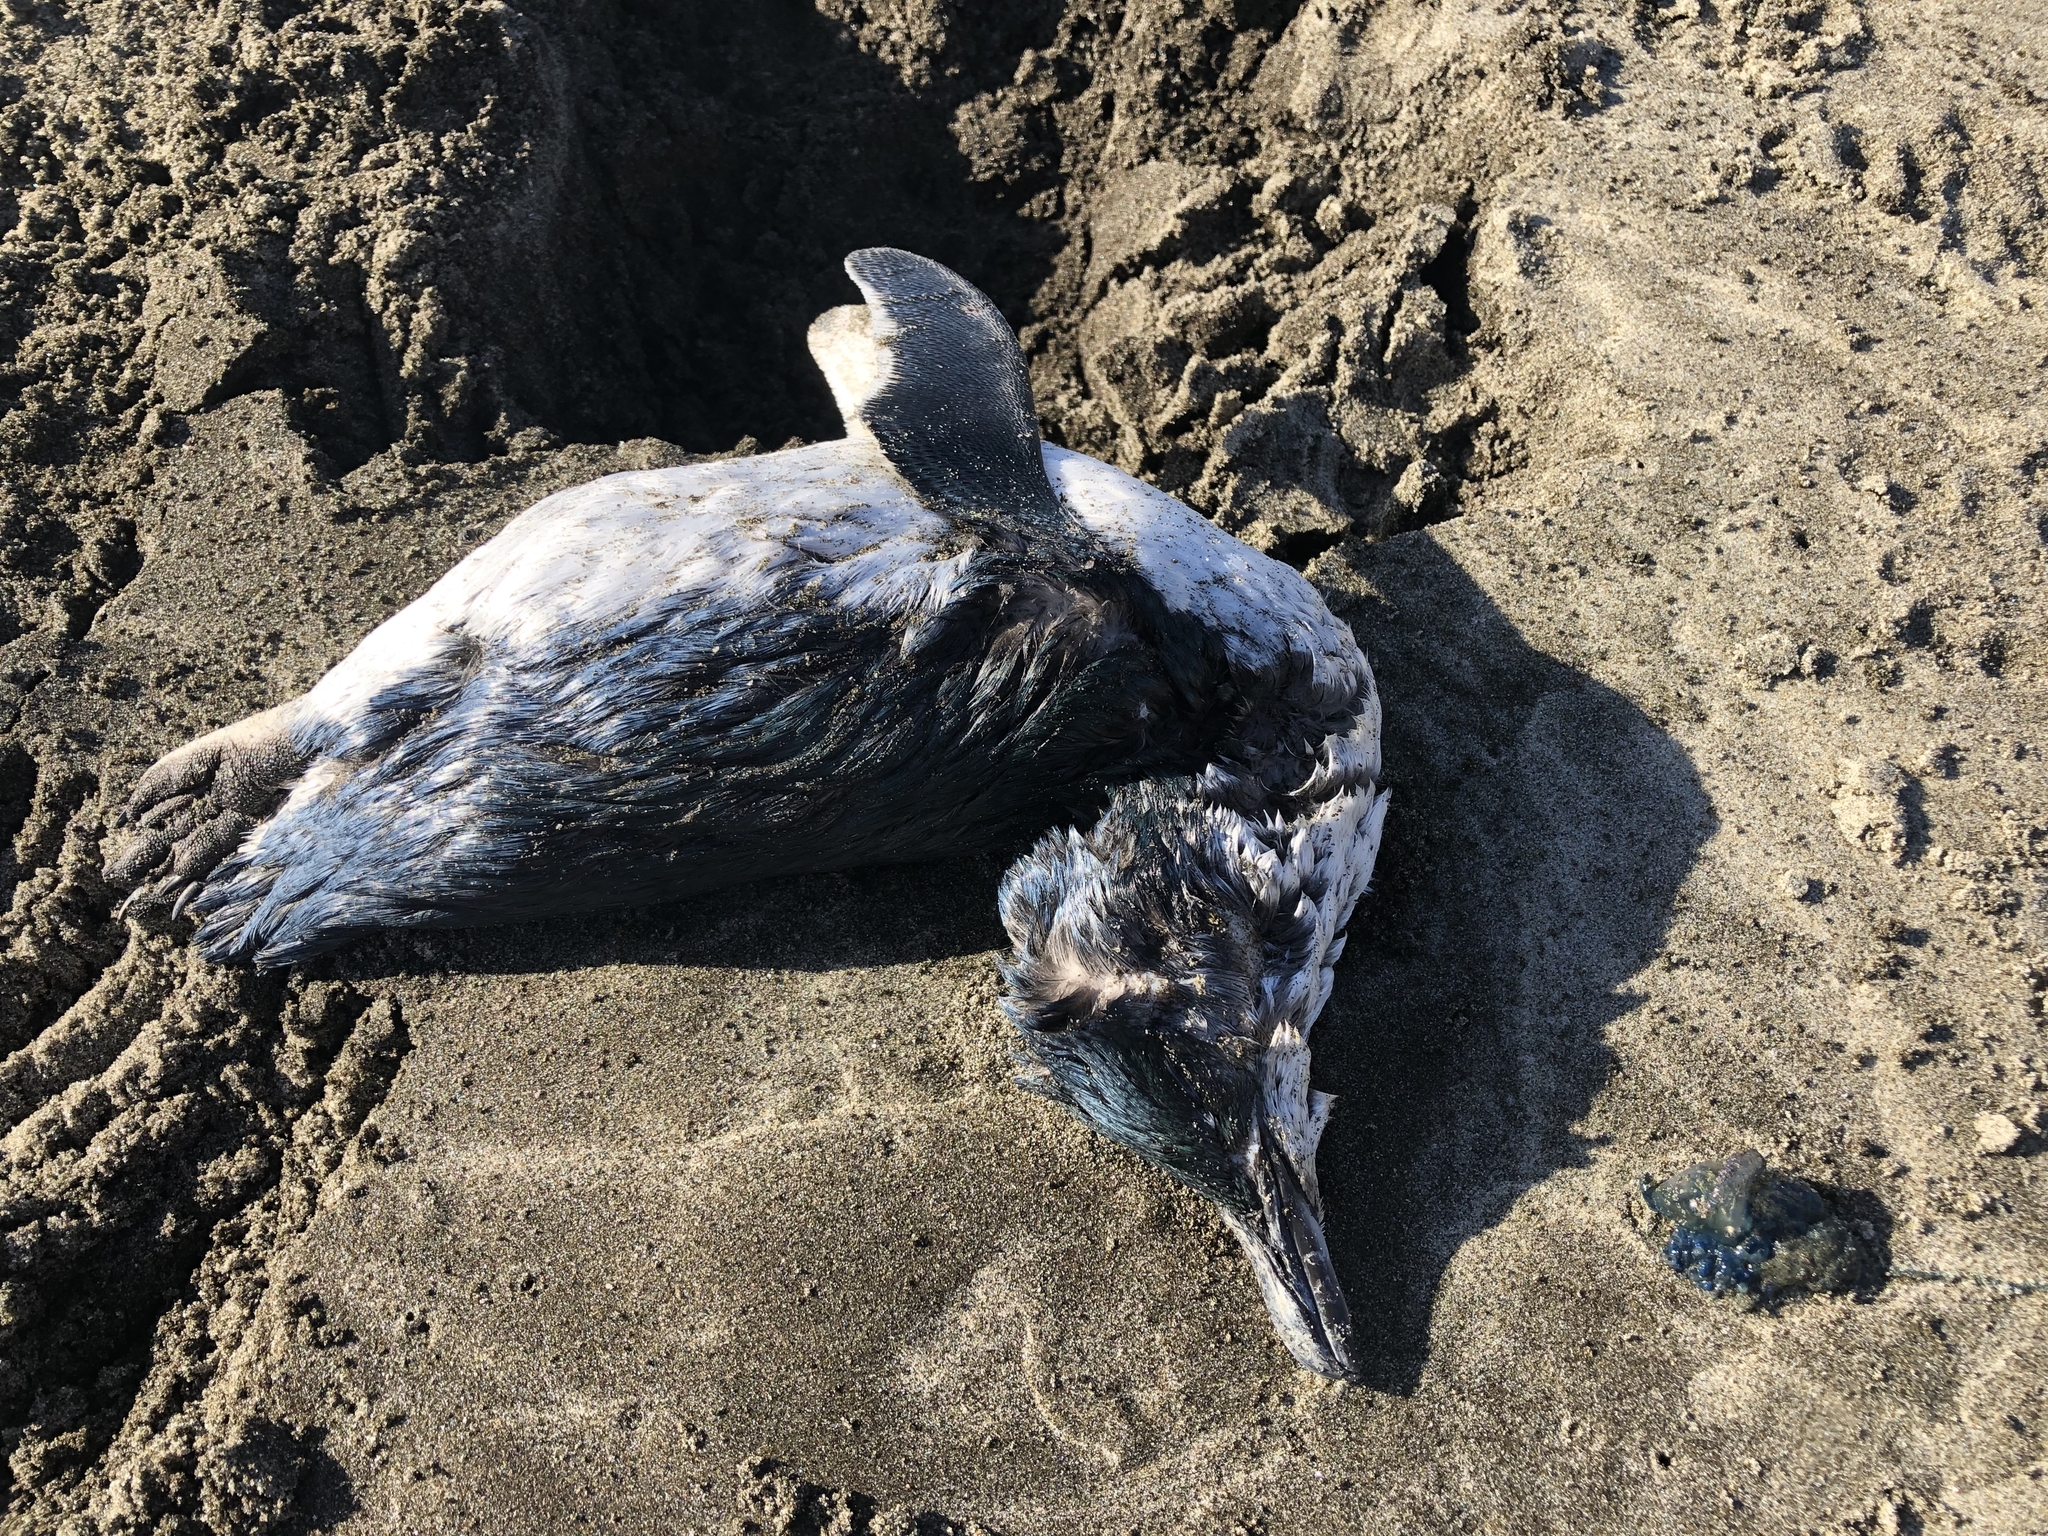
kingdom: Animalia
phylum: Chordata
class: Aves
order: Sphenisciformes
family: Spheniscidae
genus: Eudyptula
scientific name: Eudyptula minor
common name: Little penguin
